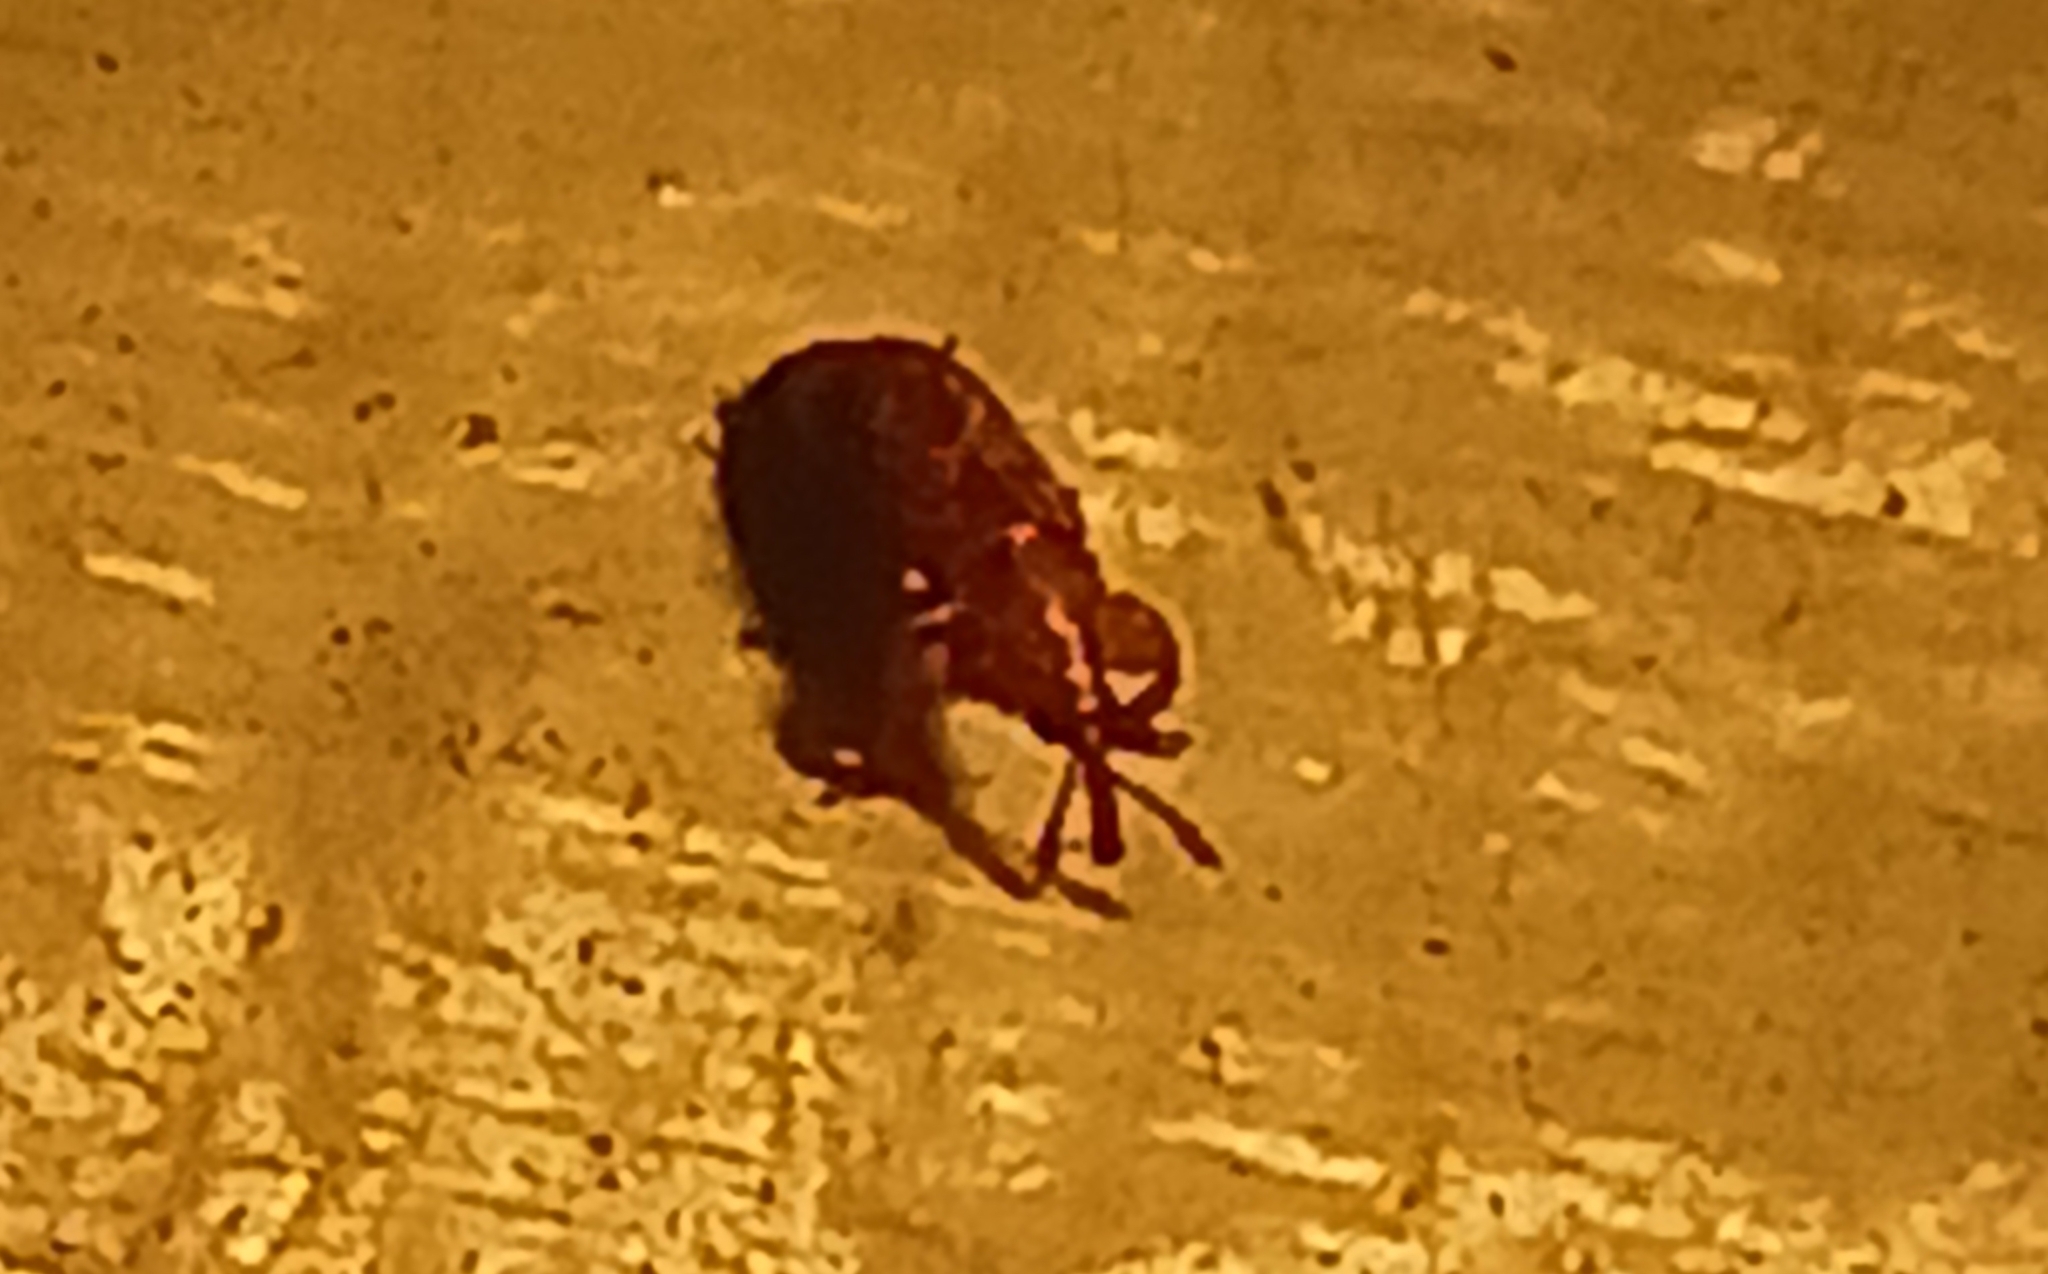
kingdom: Animalia
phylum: Arthropoda
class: Insecta
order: Coleoptera
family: Belidae
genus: Rhopalotria
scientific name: Rhopalotria furfuracea
